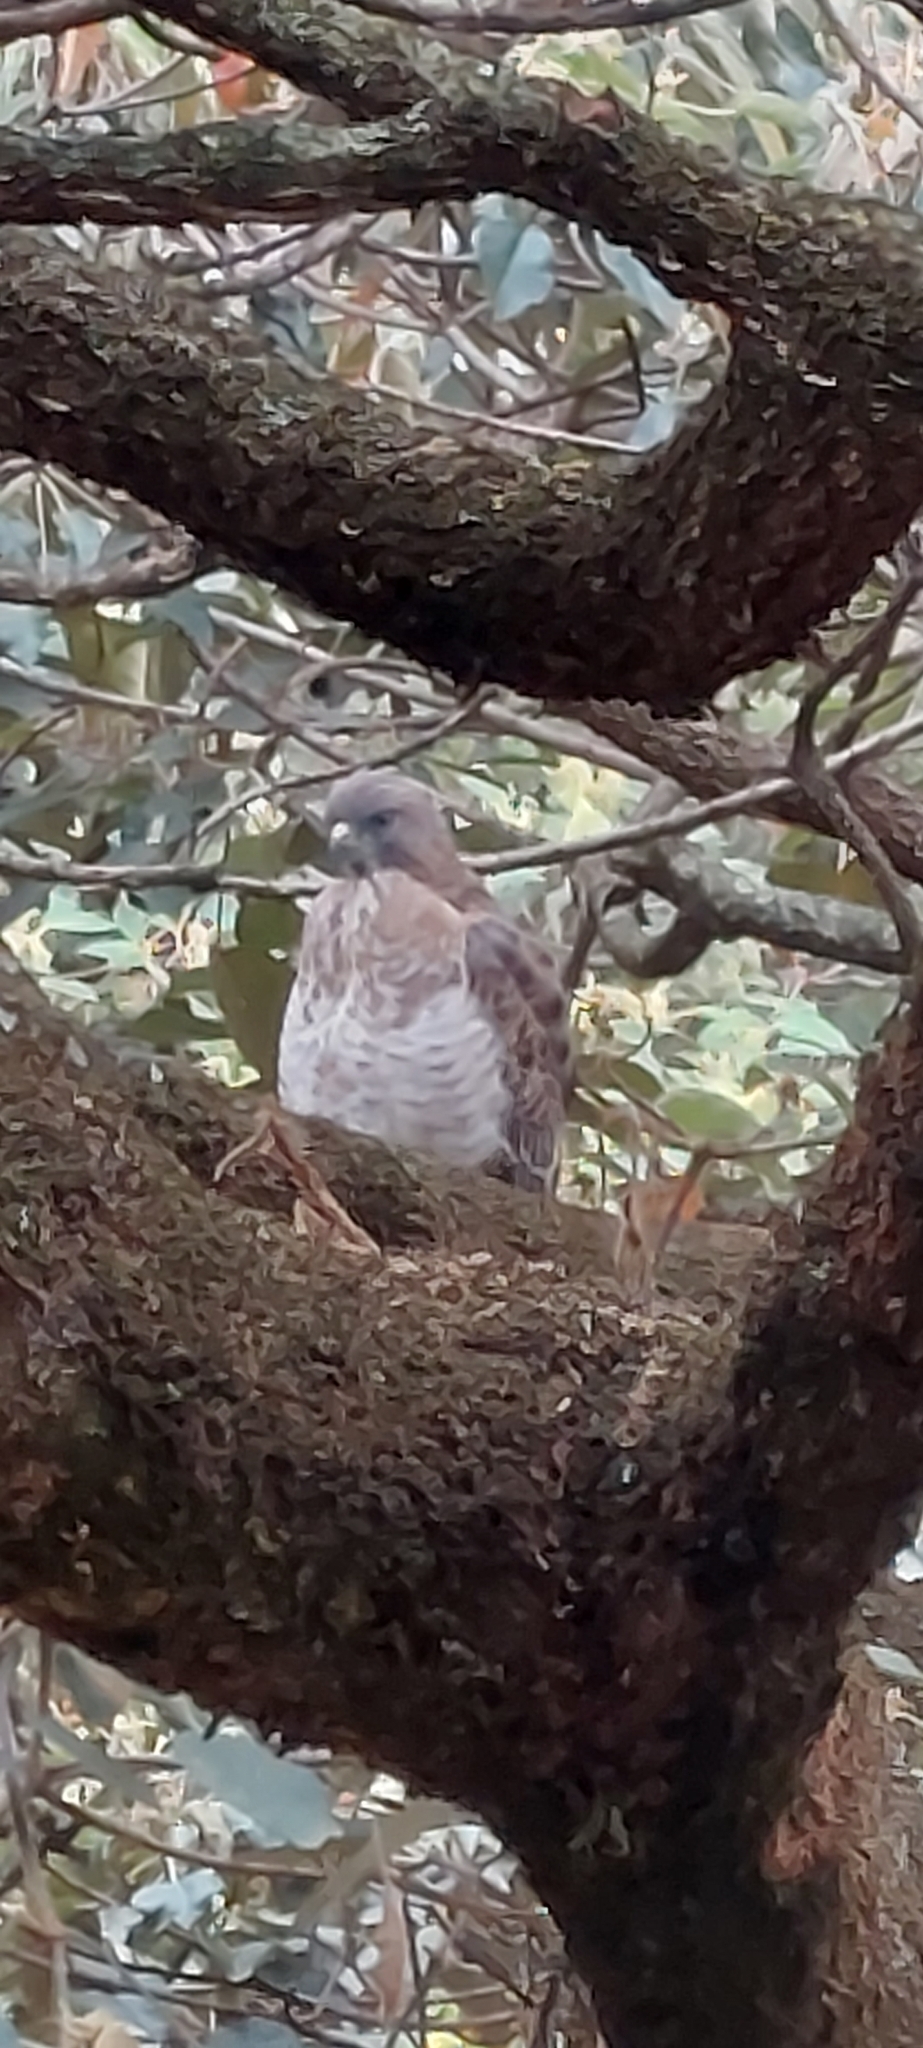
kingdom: Animalia
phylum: Chordata
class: Aves
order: Accipitriformes
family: Accipitridae
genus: Buteo
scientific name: Buteo platypterus
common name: Broad-winged hawk
